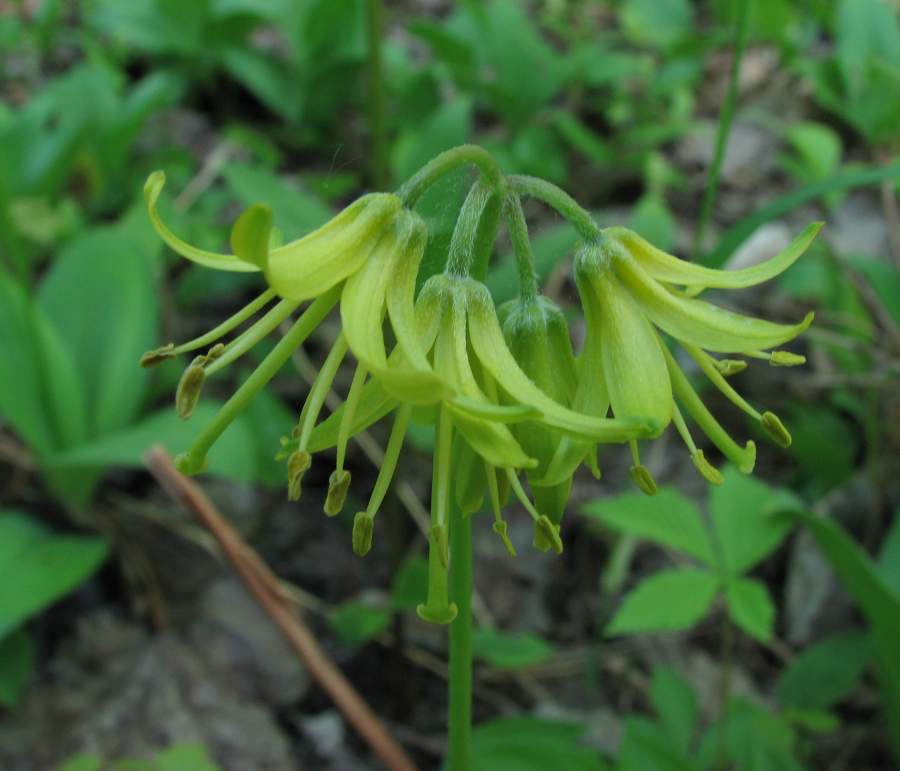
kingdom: Plantae
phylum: Tracheophyta
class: Liliopsida
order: Liliales
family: Liliaceae
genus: Clintonia
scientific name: Clintonia borealis
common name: Yellow clintonia
